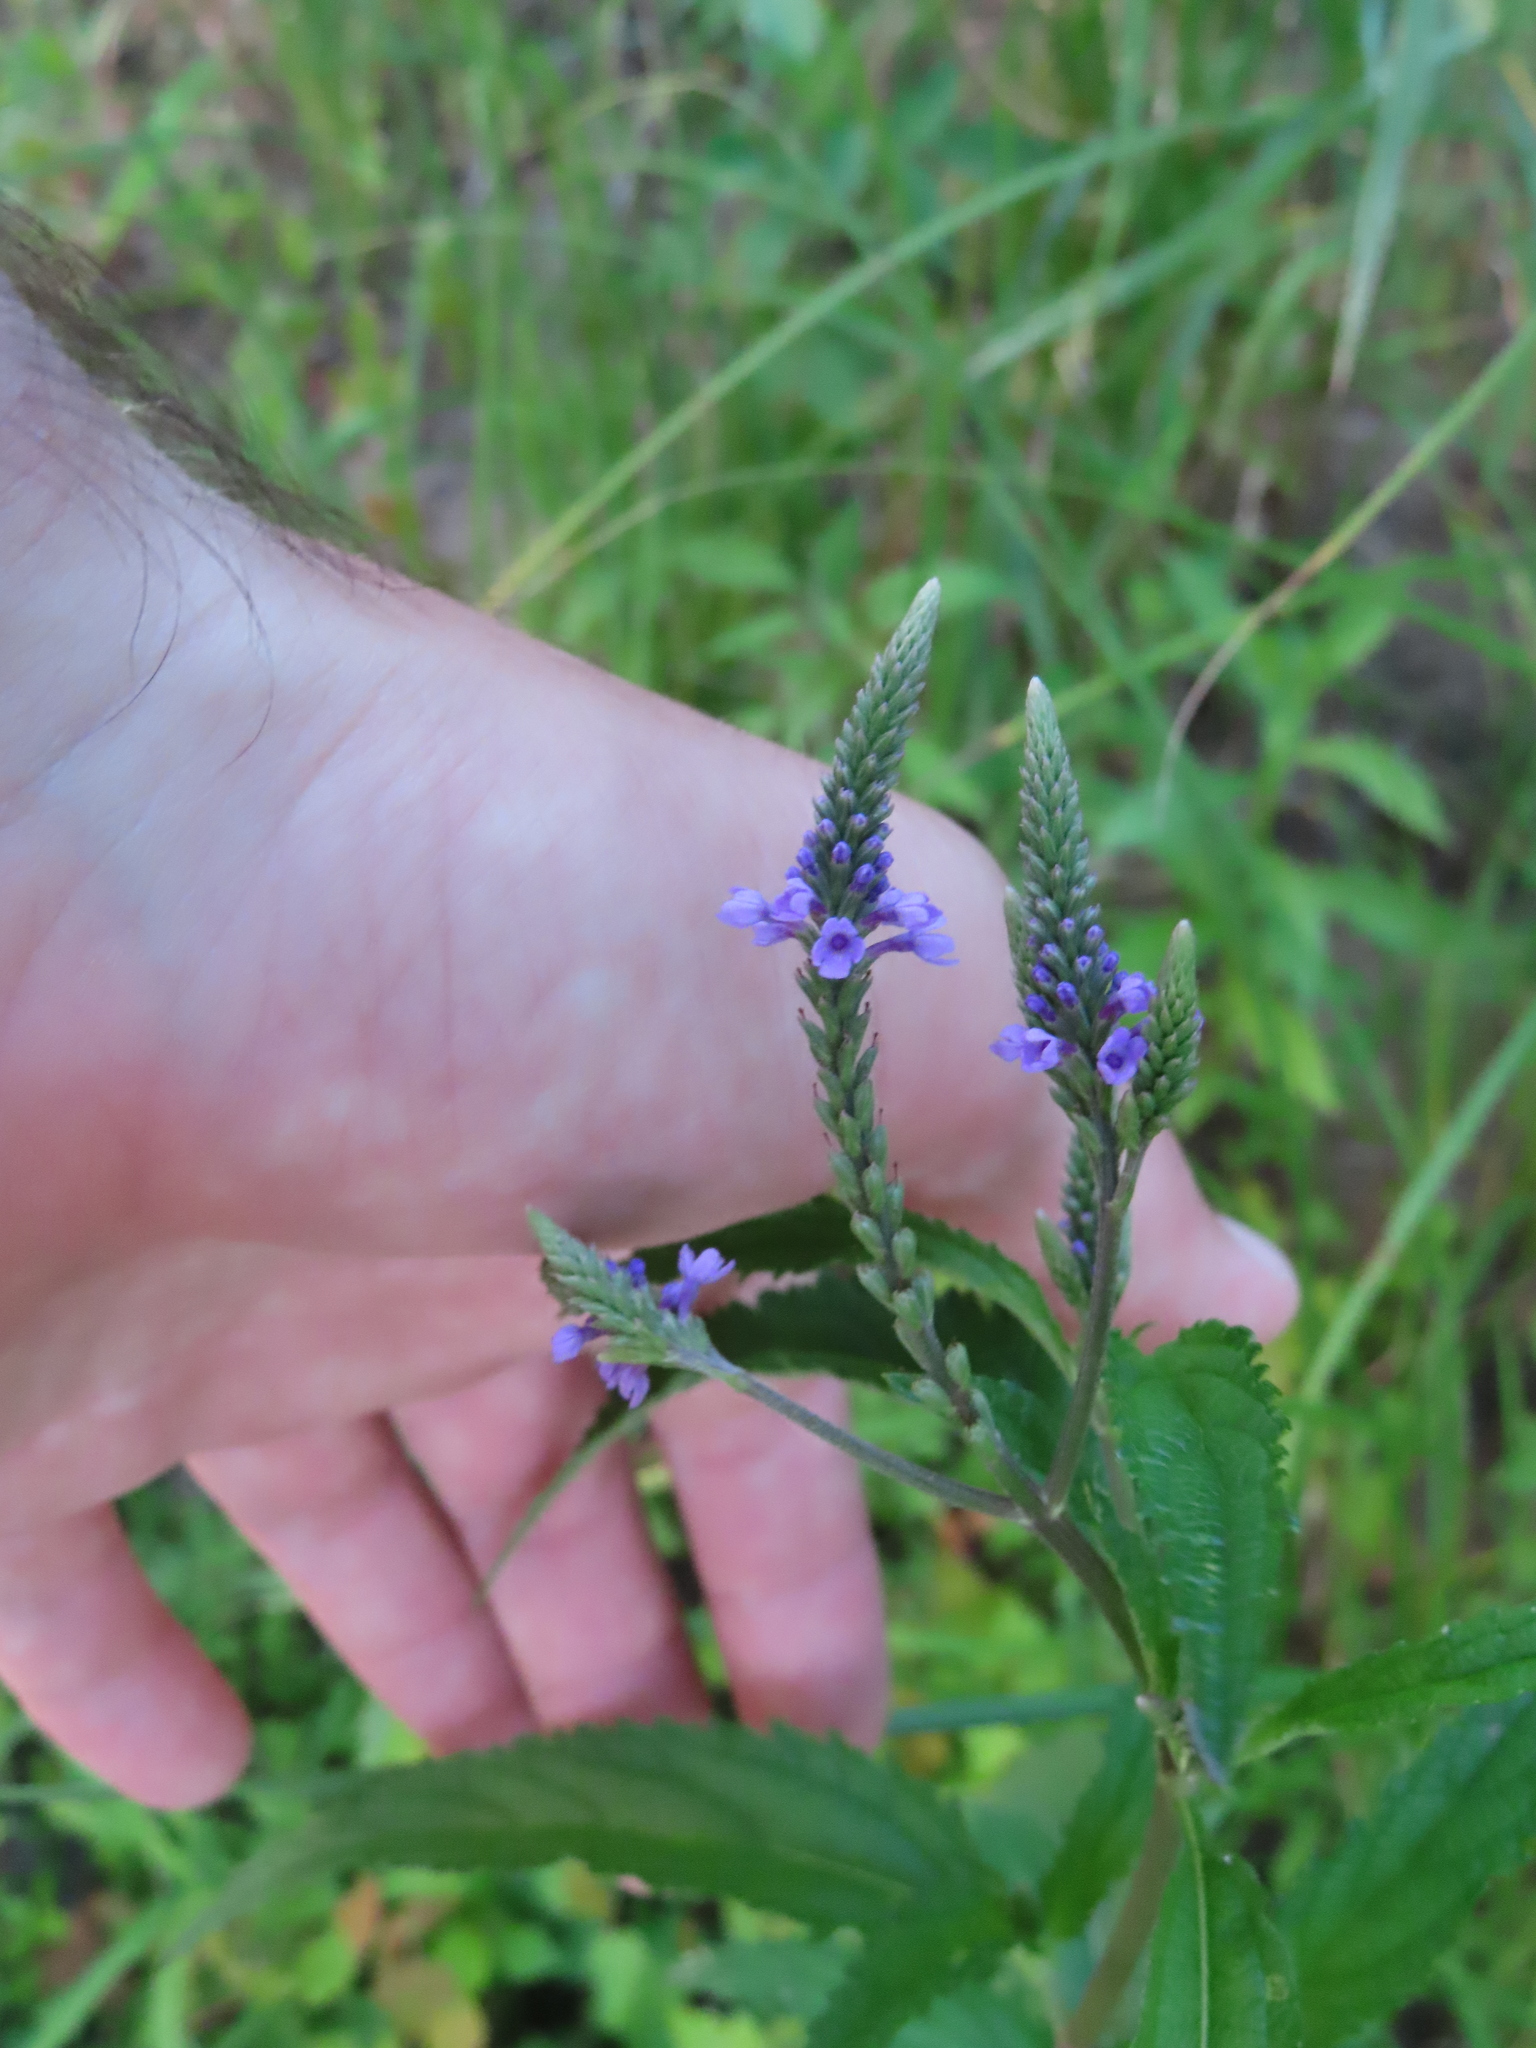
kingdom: Plantae
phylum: Tracheophyta
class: Magnoliopsida
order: Lamiales
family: Verbenaceae
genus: Verbena
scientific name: Verbena hastata
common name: American blue vervain
